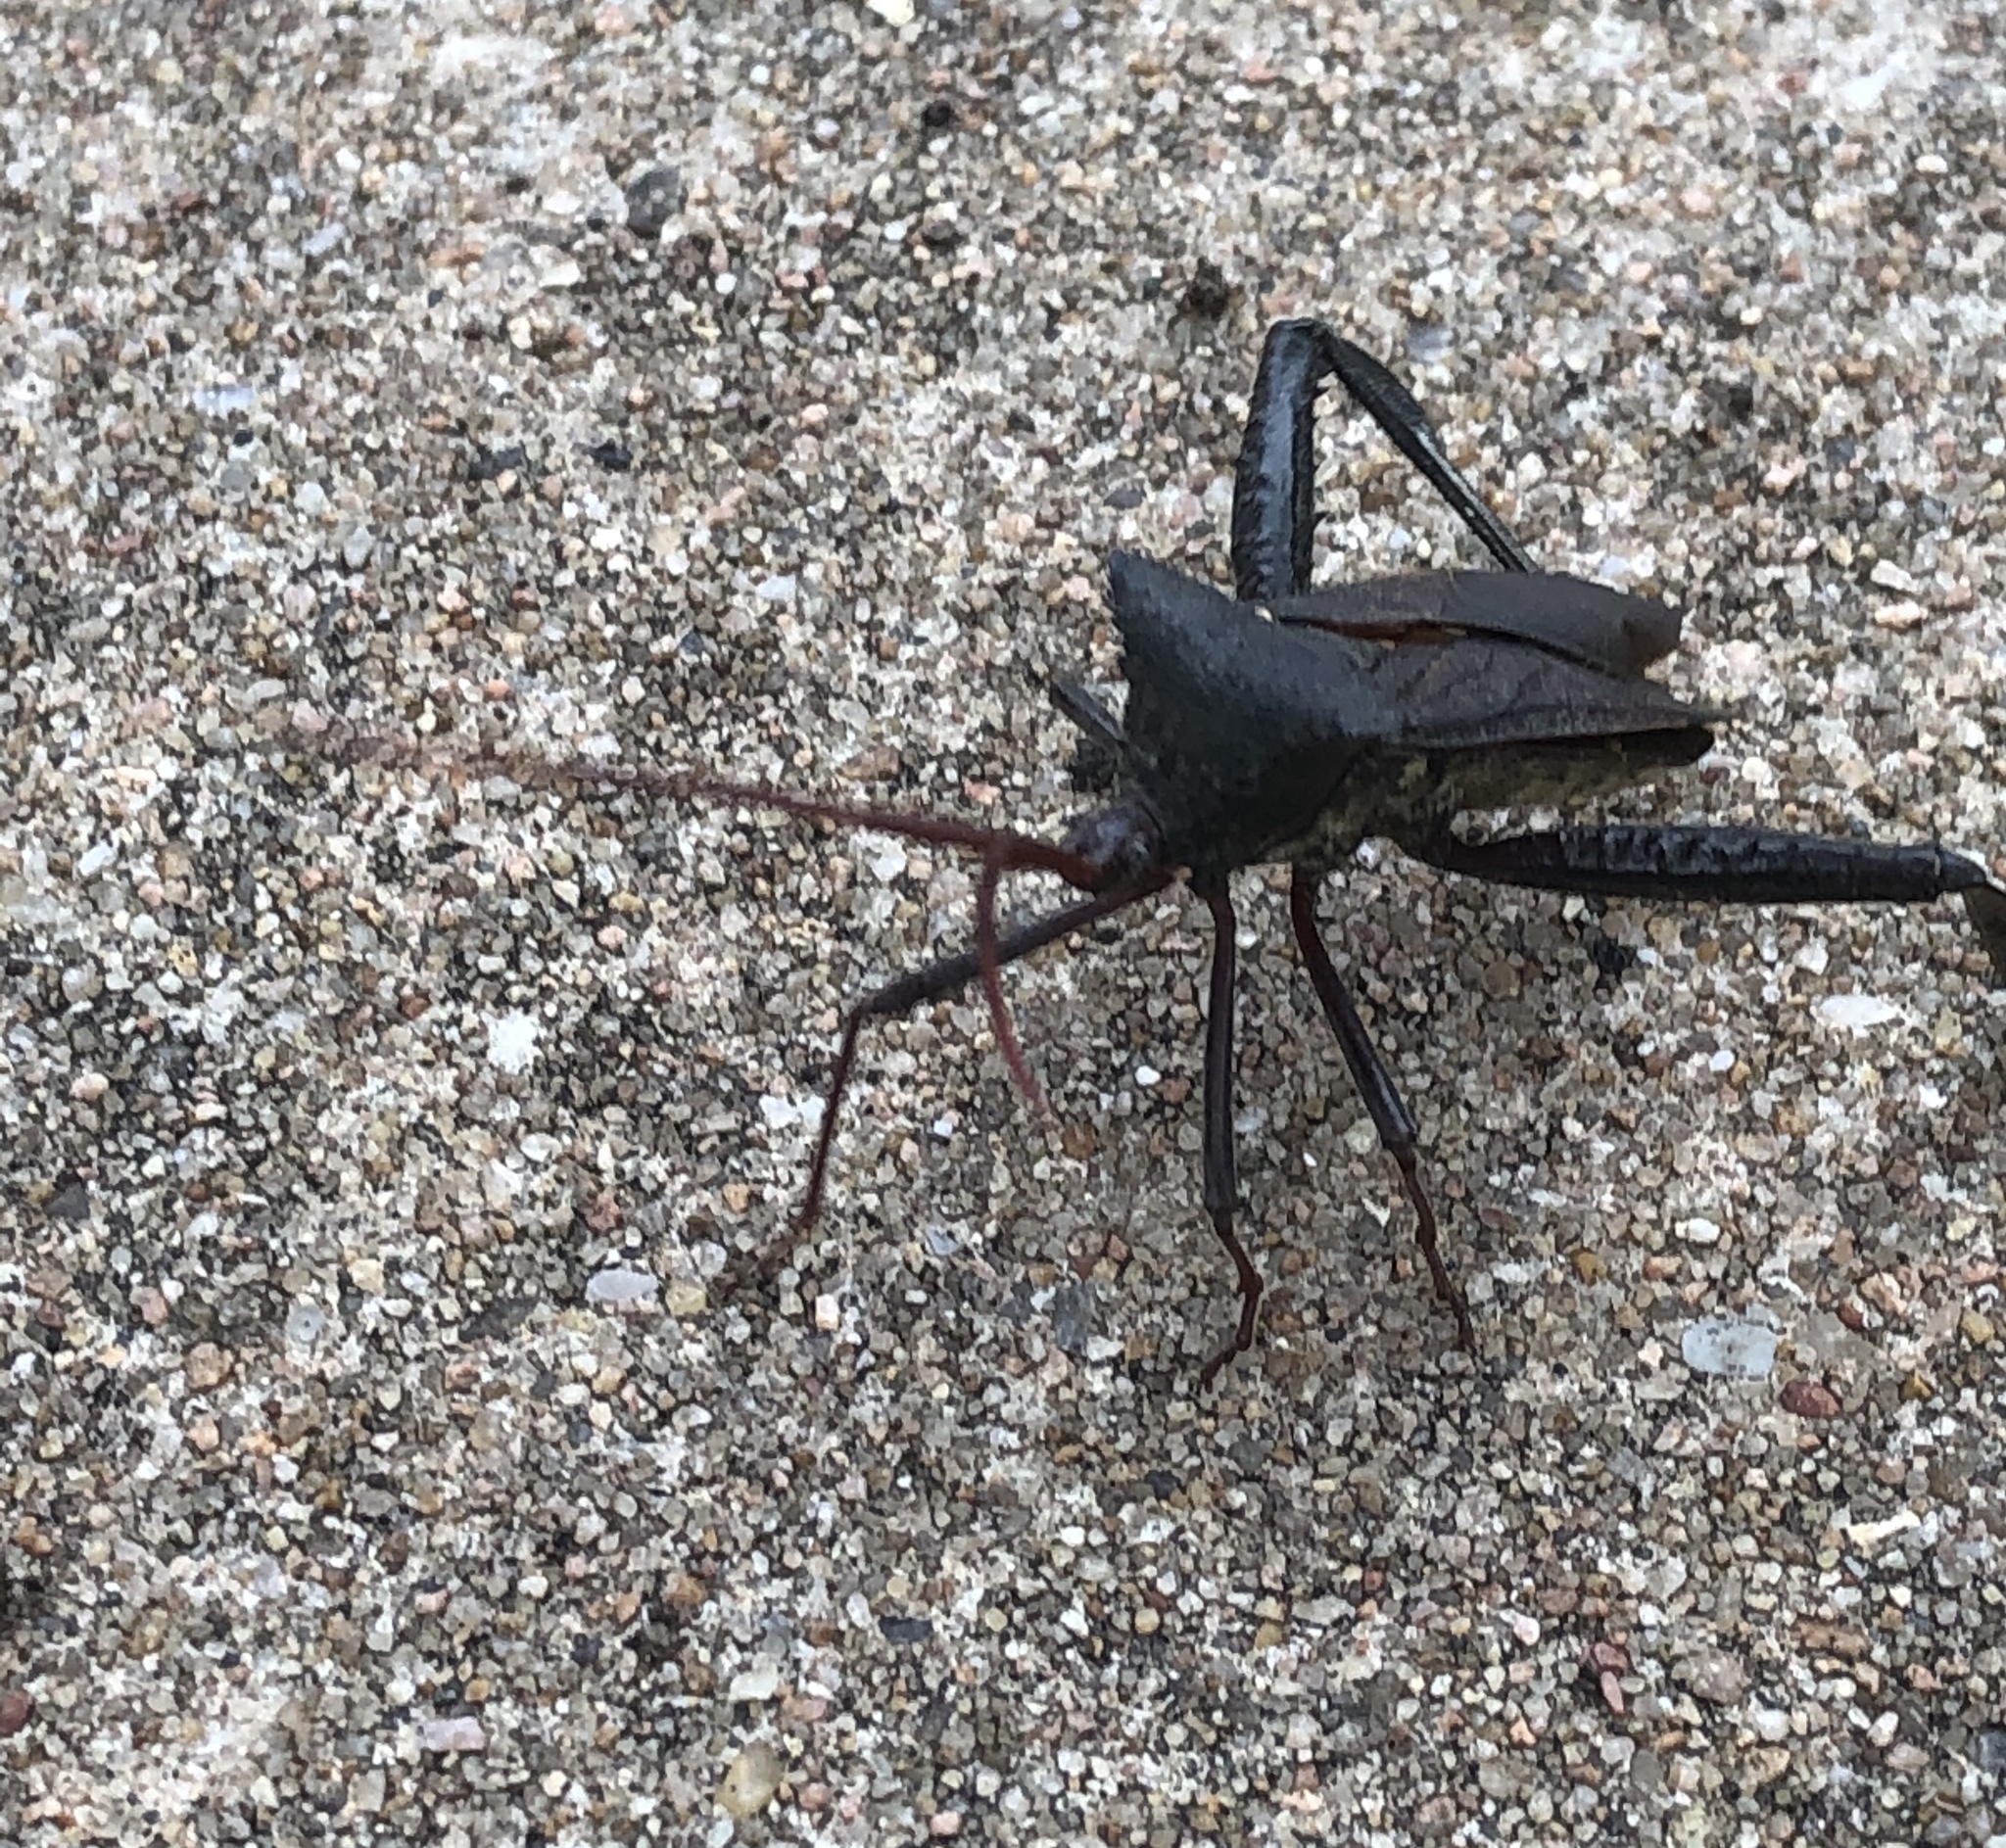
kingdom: Animalia
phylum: Arthropoda
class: Insecta
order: Hemiptera
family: Coreidae
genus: Acanthocephala
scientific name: Acanthocephala declivis
